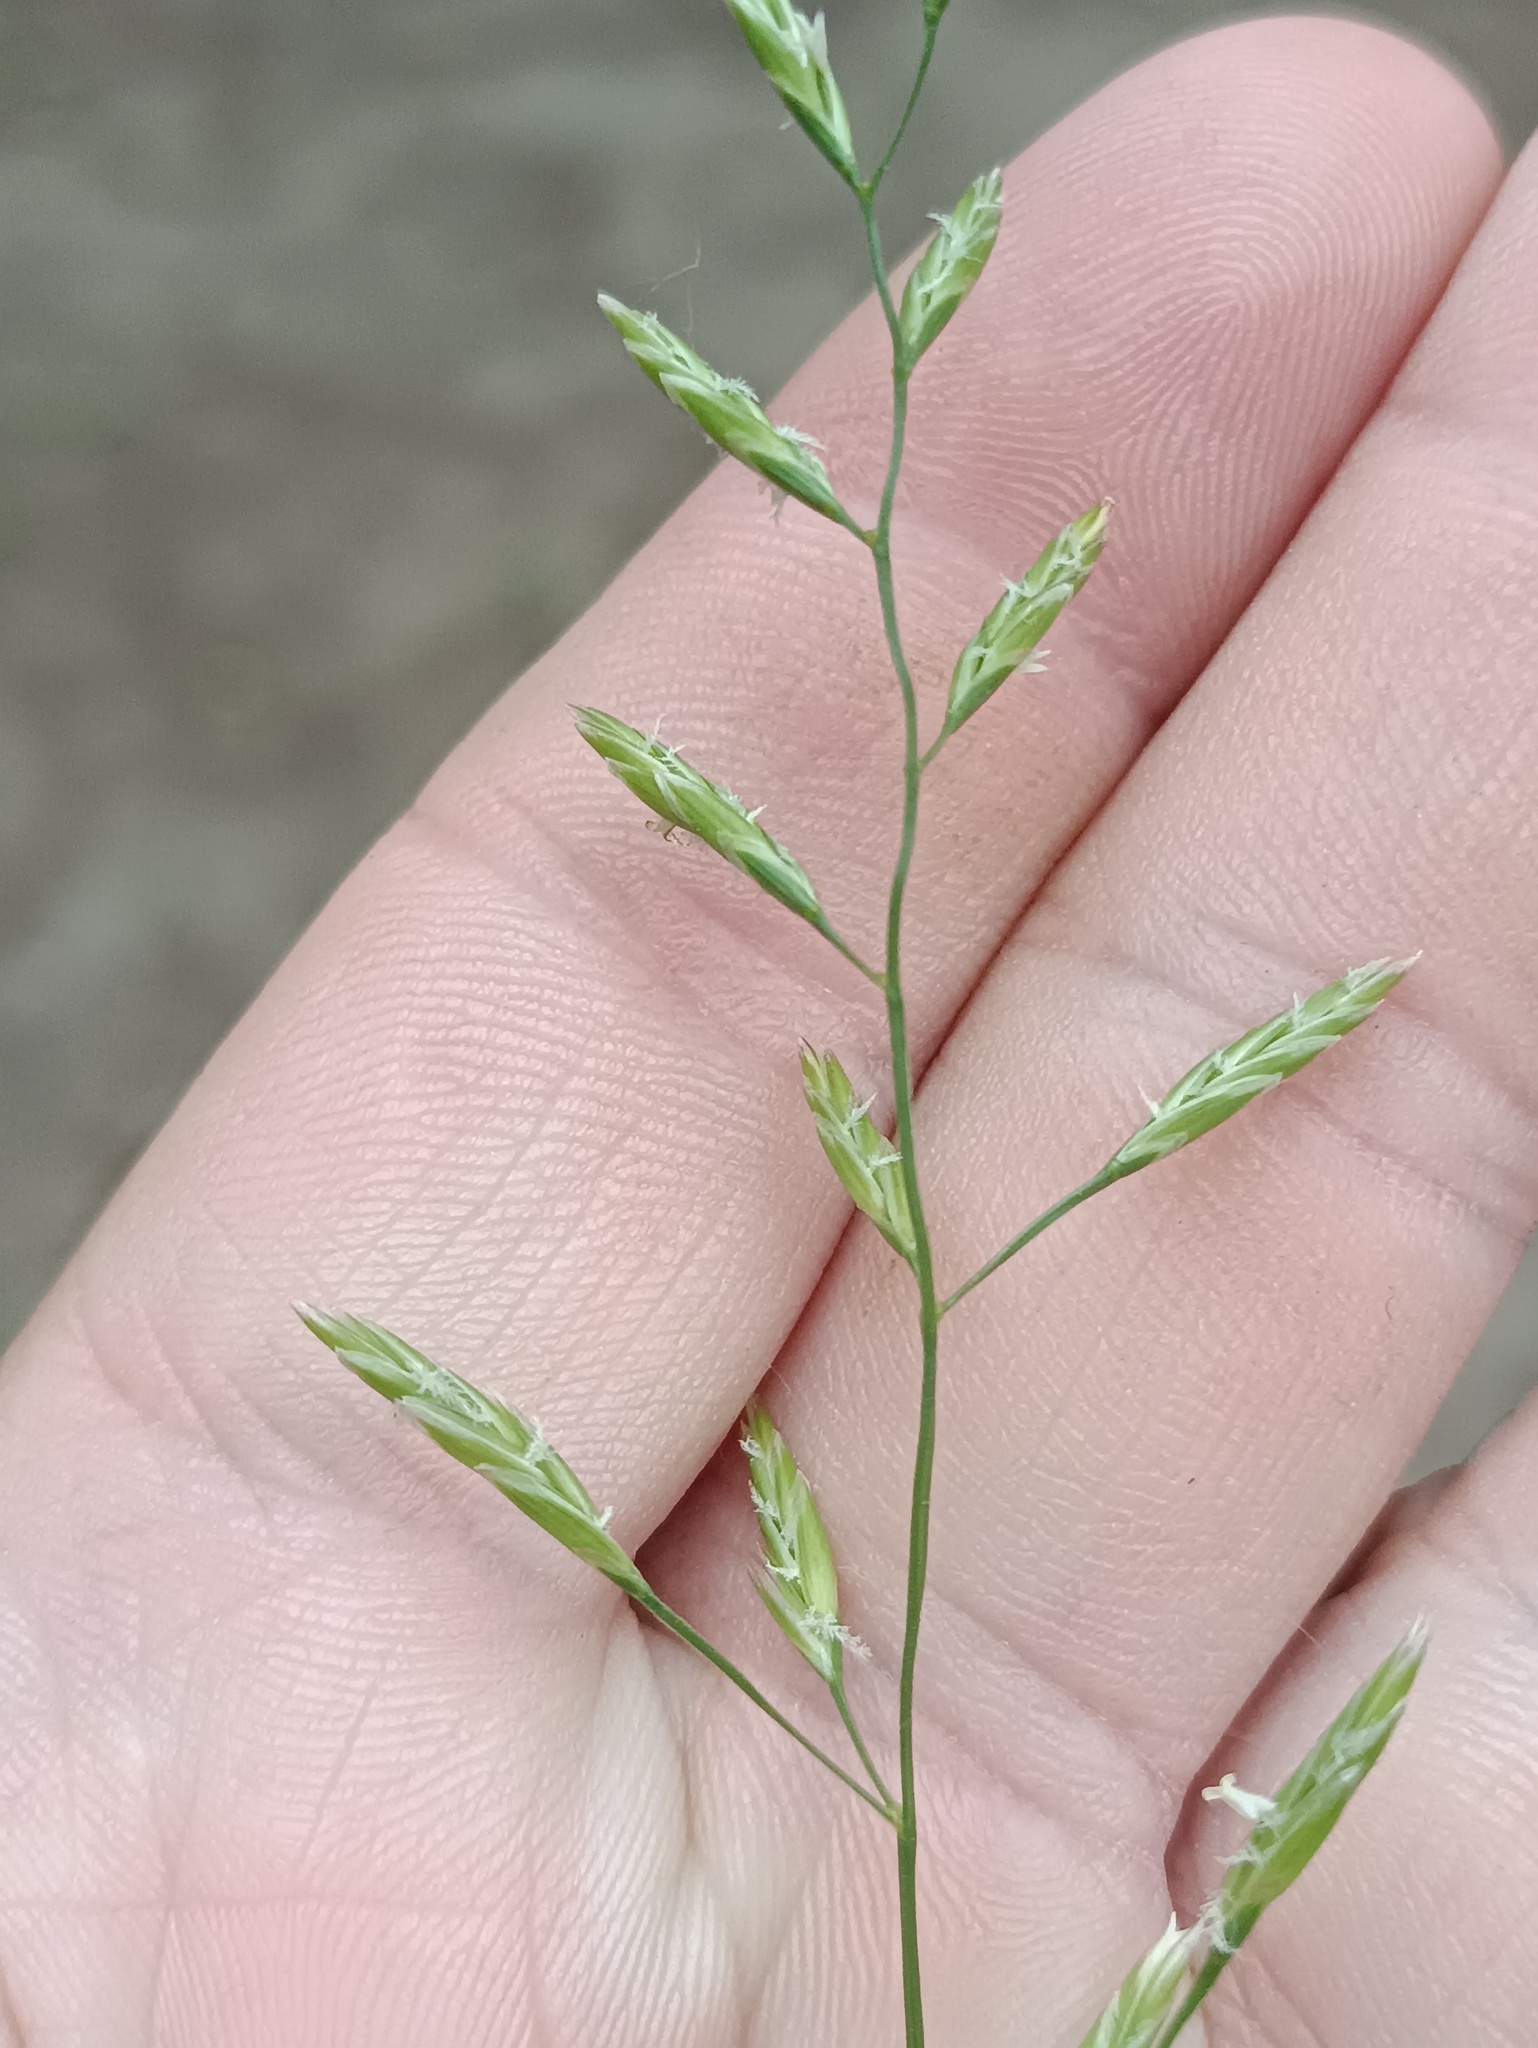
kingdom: Plantae
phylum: Tracheophyta
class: Liliopsida
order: Poales
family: Poaceae
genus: Lolium
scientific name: Lolium pratense
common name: Dover grass
